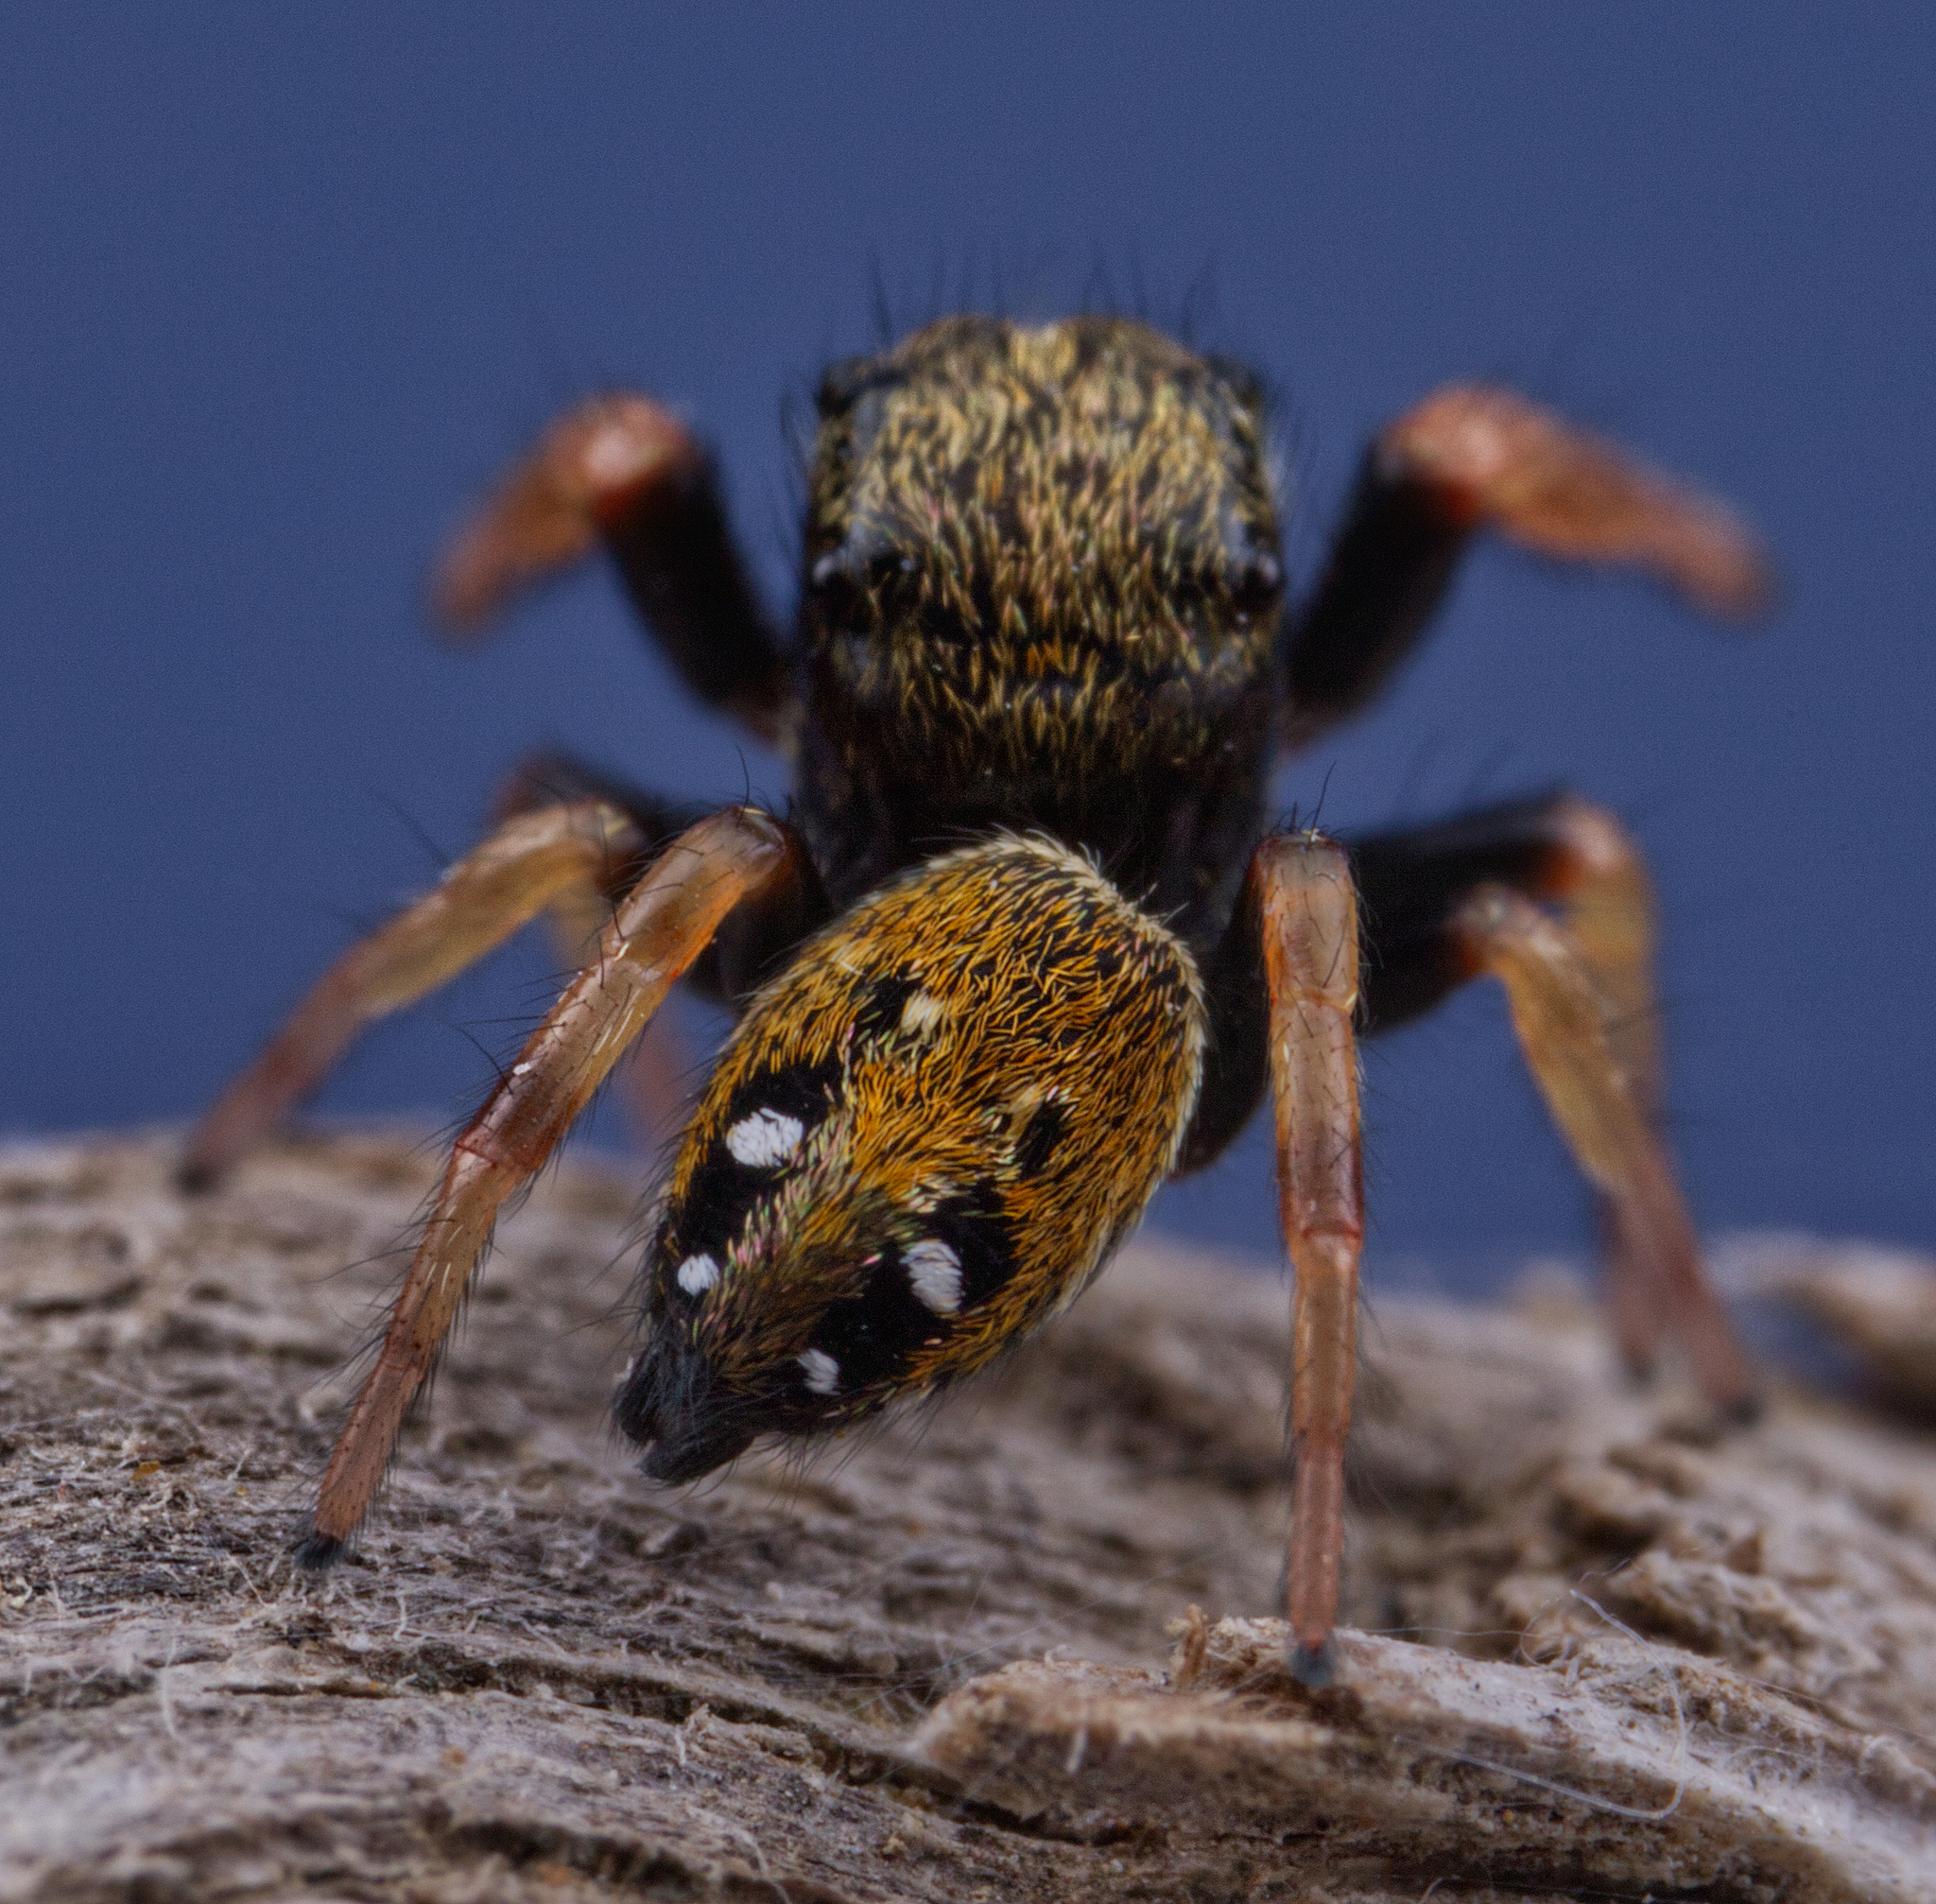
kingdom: Animalia
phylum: Arthropoda
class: Arachnida
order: Araneae
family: Salticidae
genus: Phidippus
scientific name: Phidippus whitmani
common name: Whitman's jumping spider
